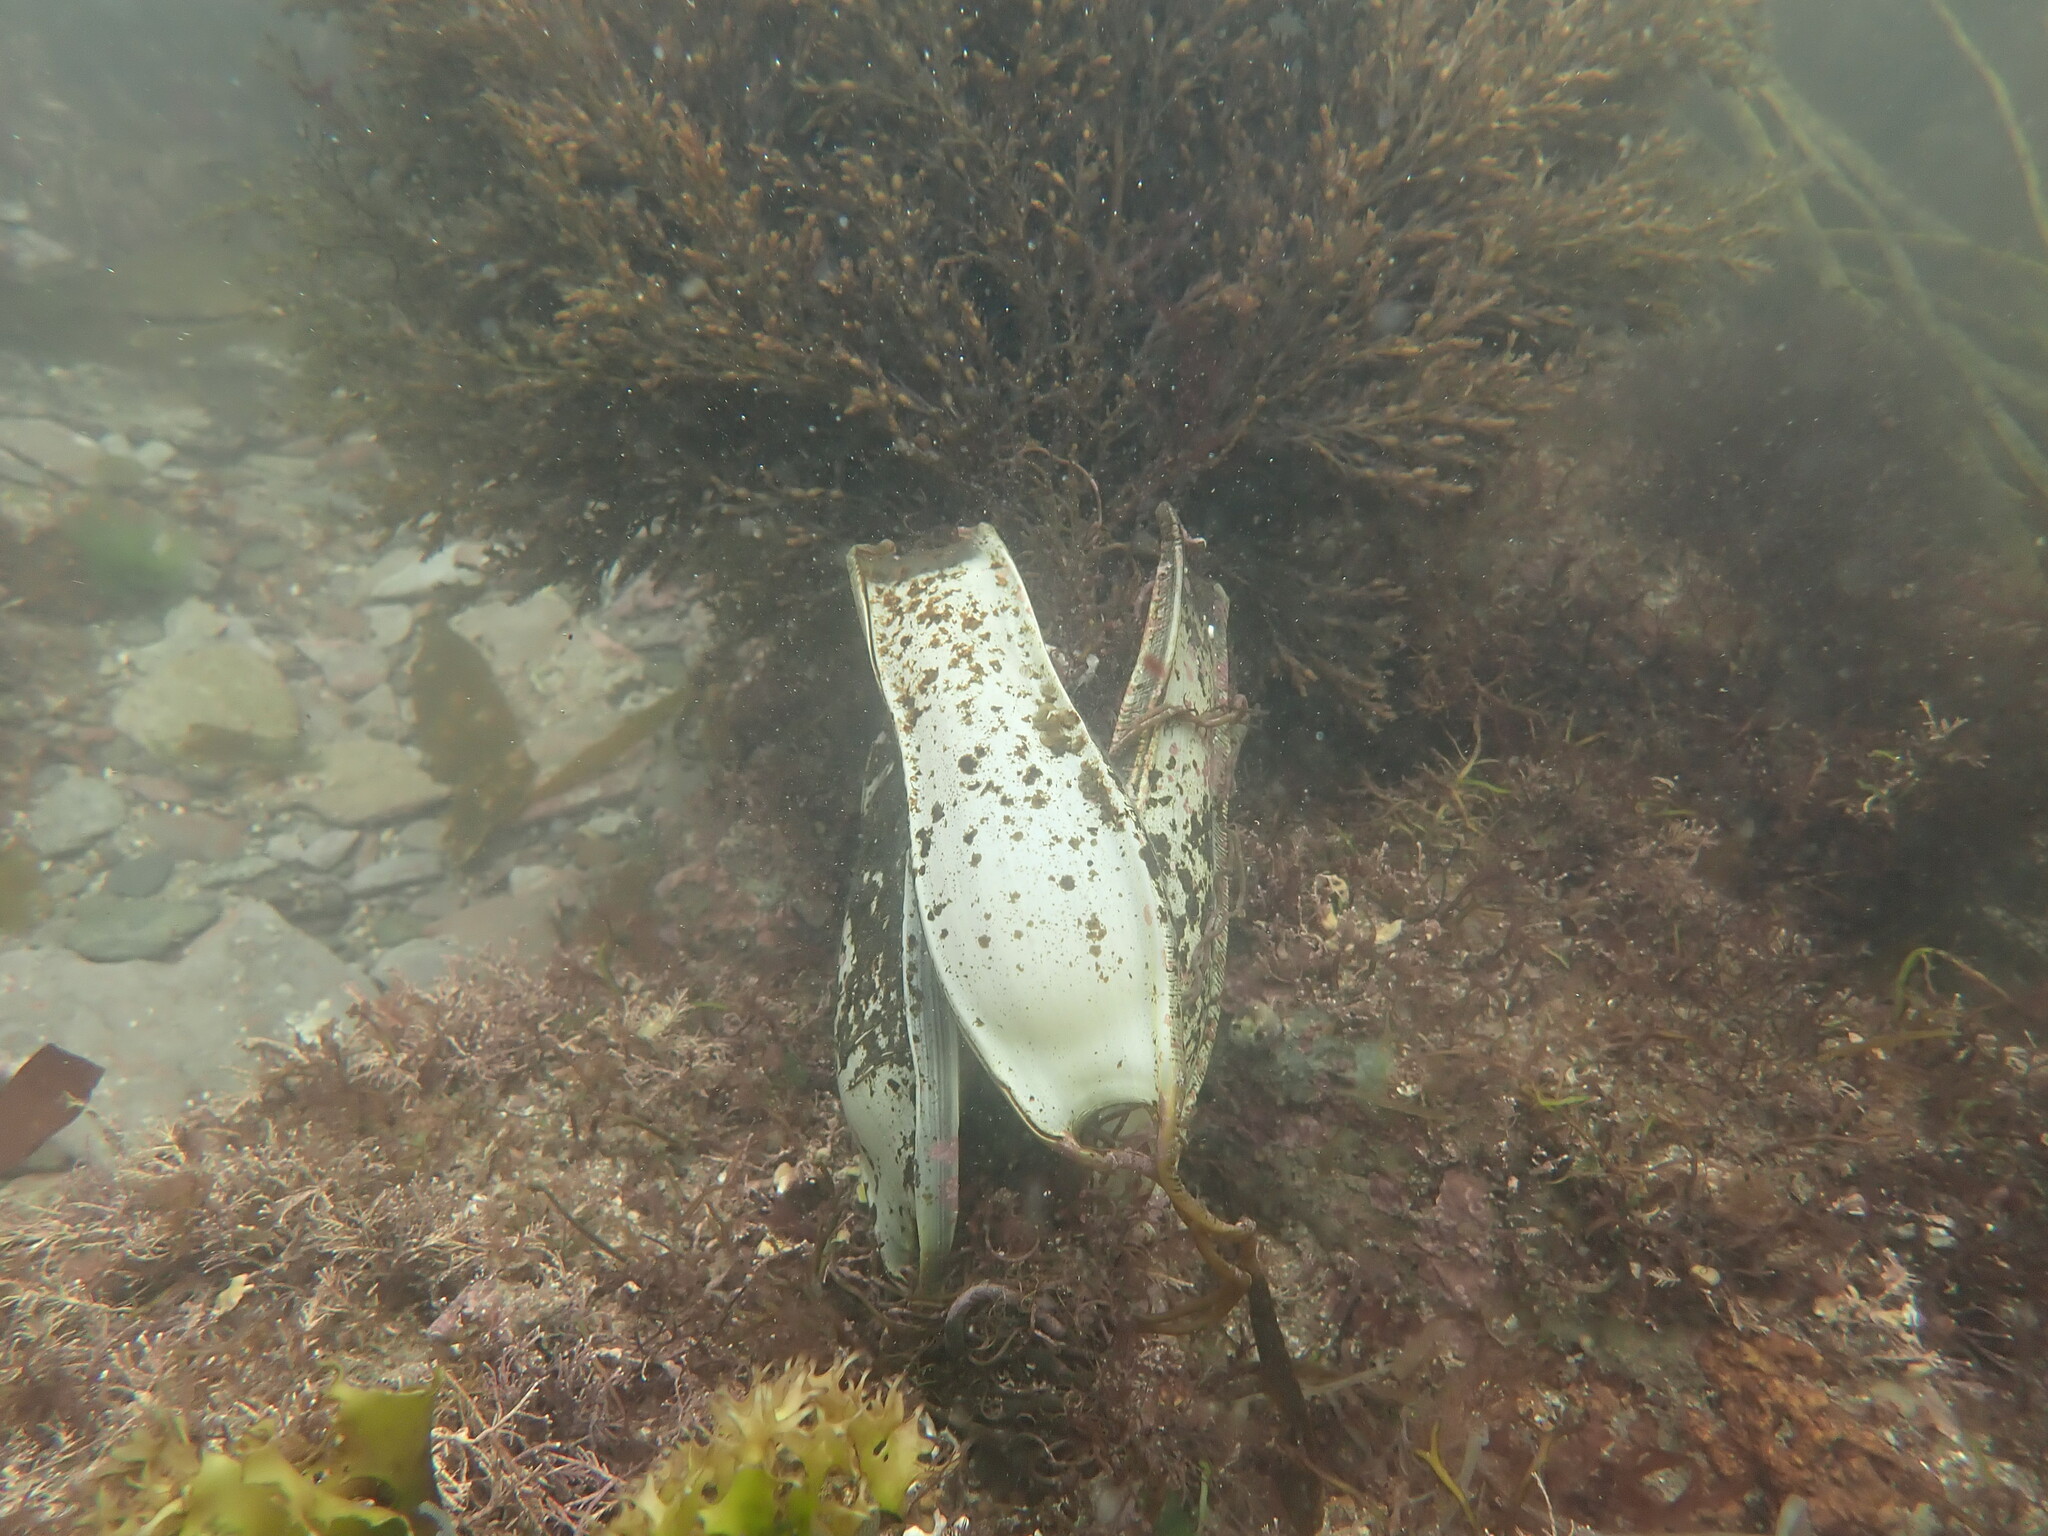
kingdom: Animalia
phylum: Chordata
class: Elasmobranchii
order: Carcharhiniformes
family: Scyliorhinidae
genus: Scyliorhinus
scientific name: Scyliorhinus stellaris
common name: Nursehound
